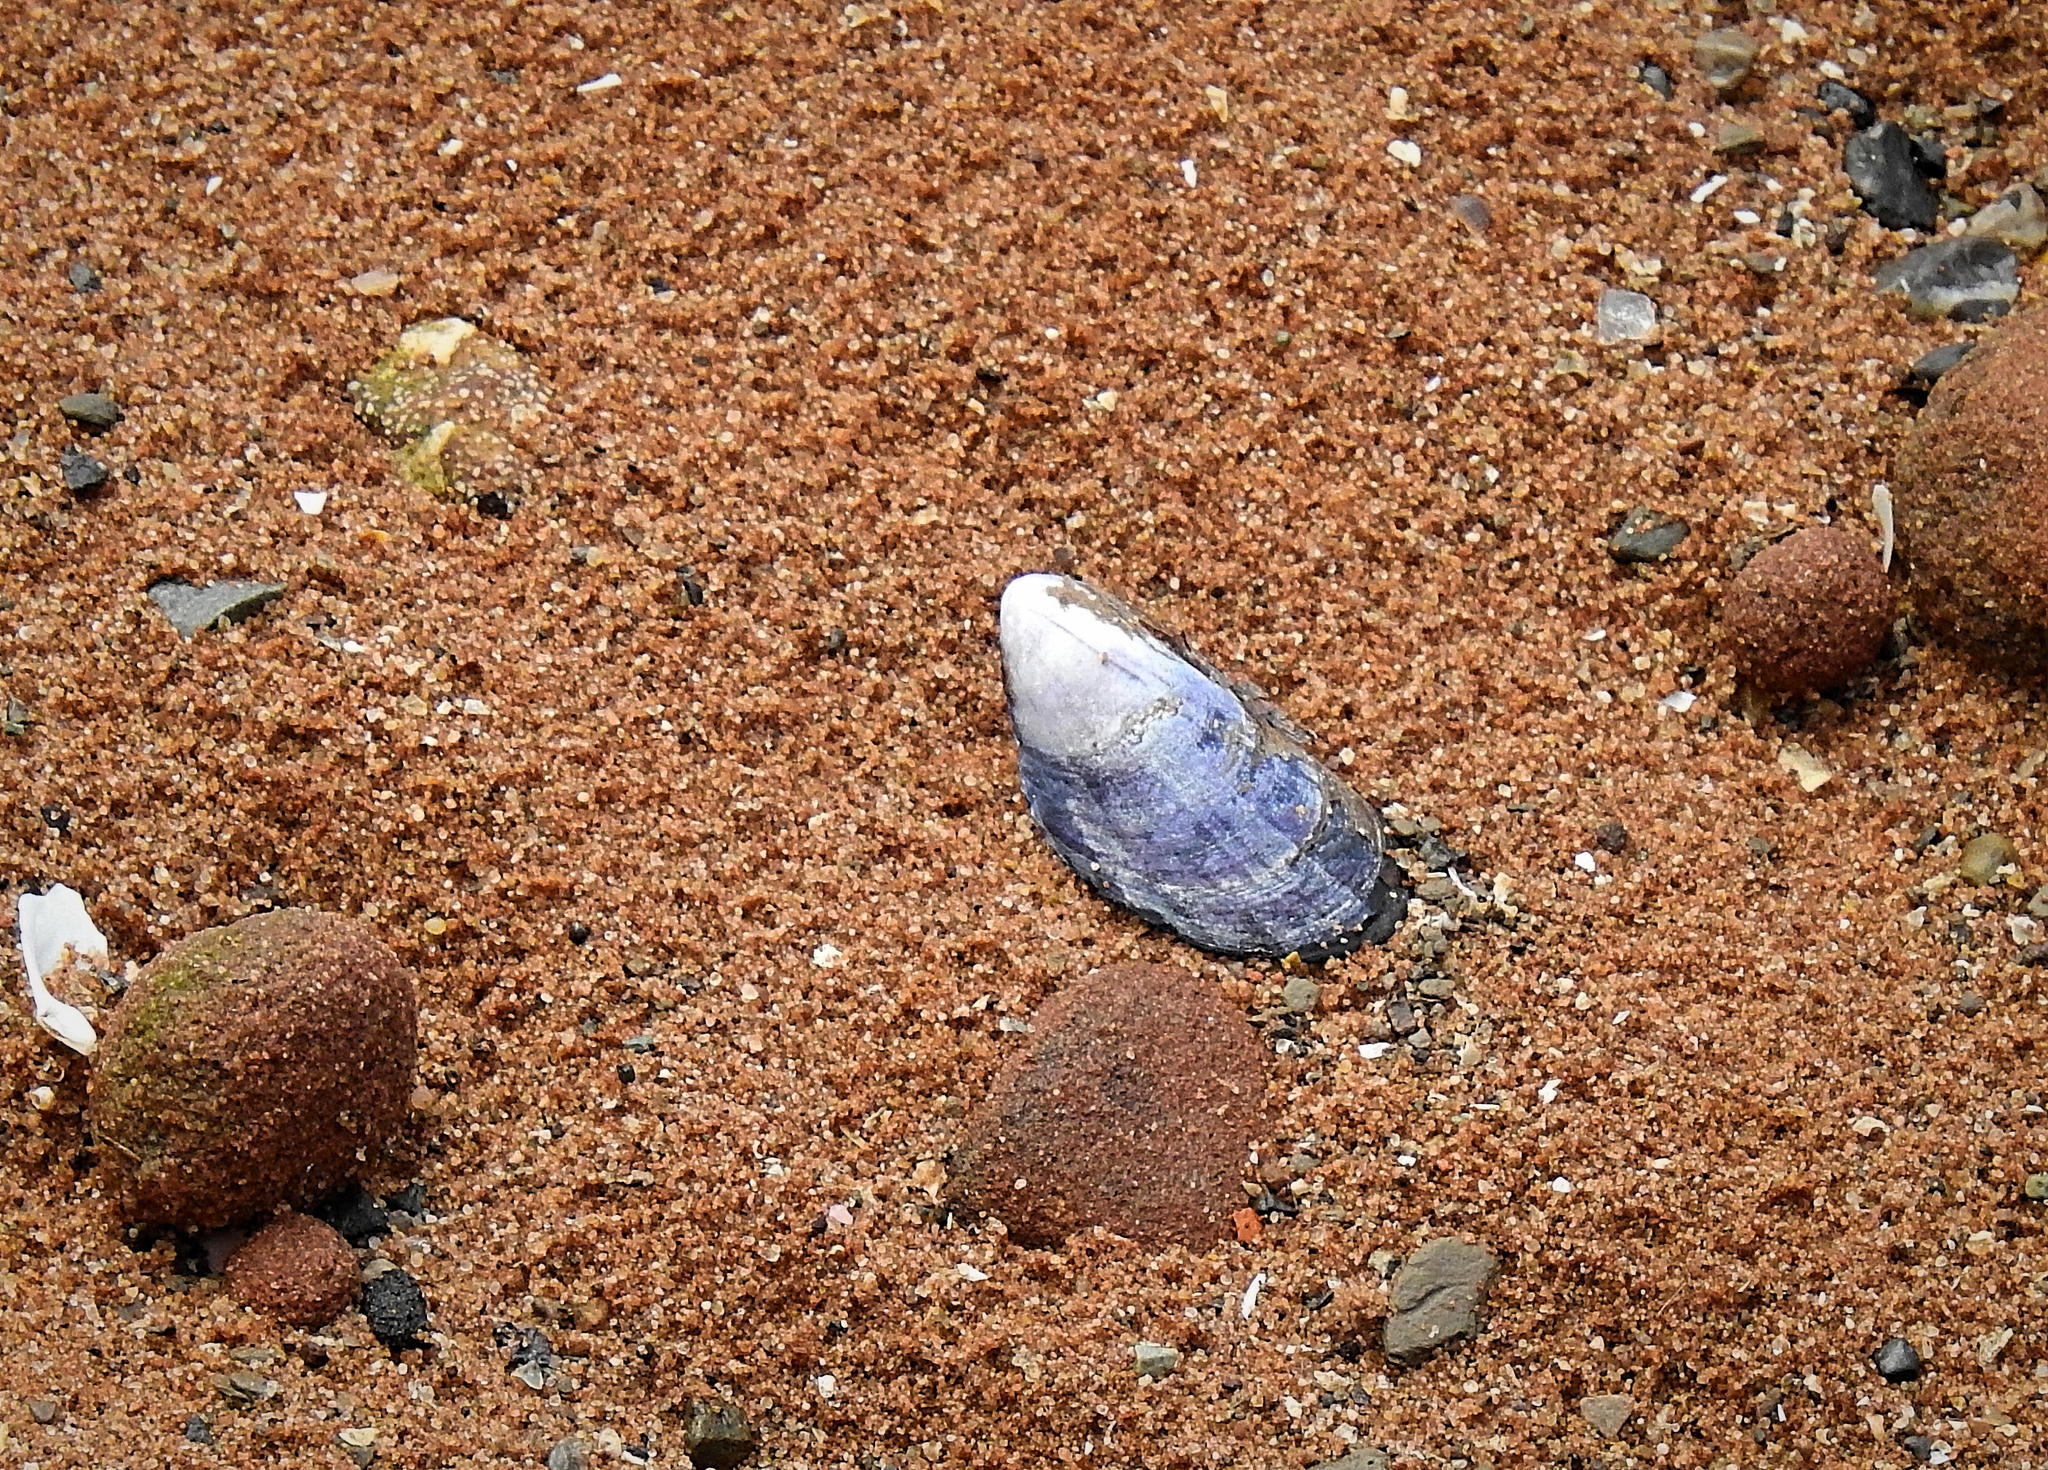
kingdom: Animalia
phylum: Mollusca
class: Bivalvia
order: Mytilida
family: Mytilidae
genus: Mytilus
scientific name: Mytilus edulis
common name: Blue mussel
